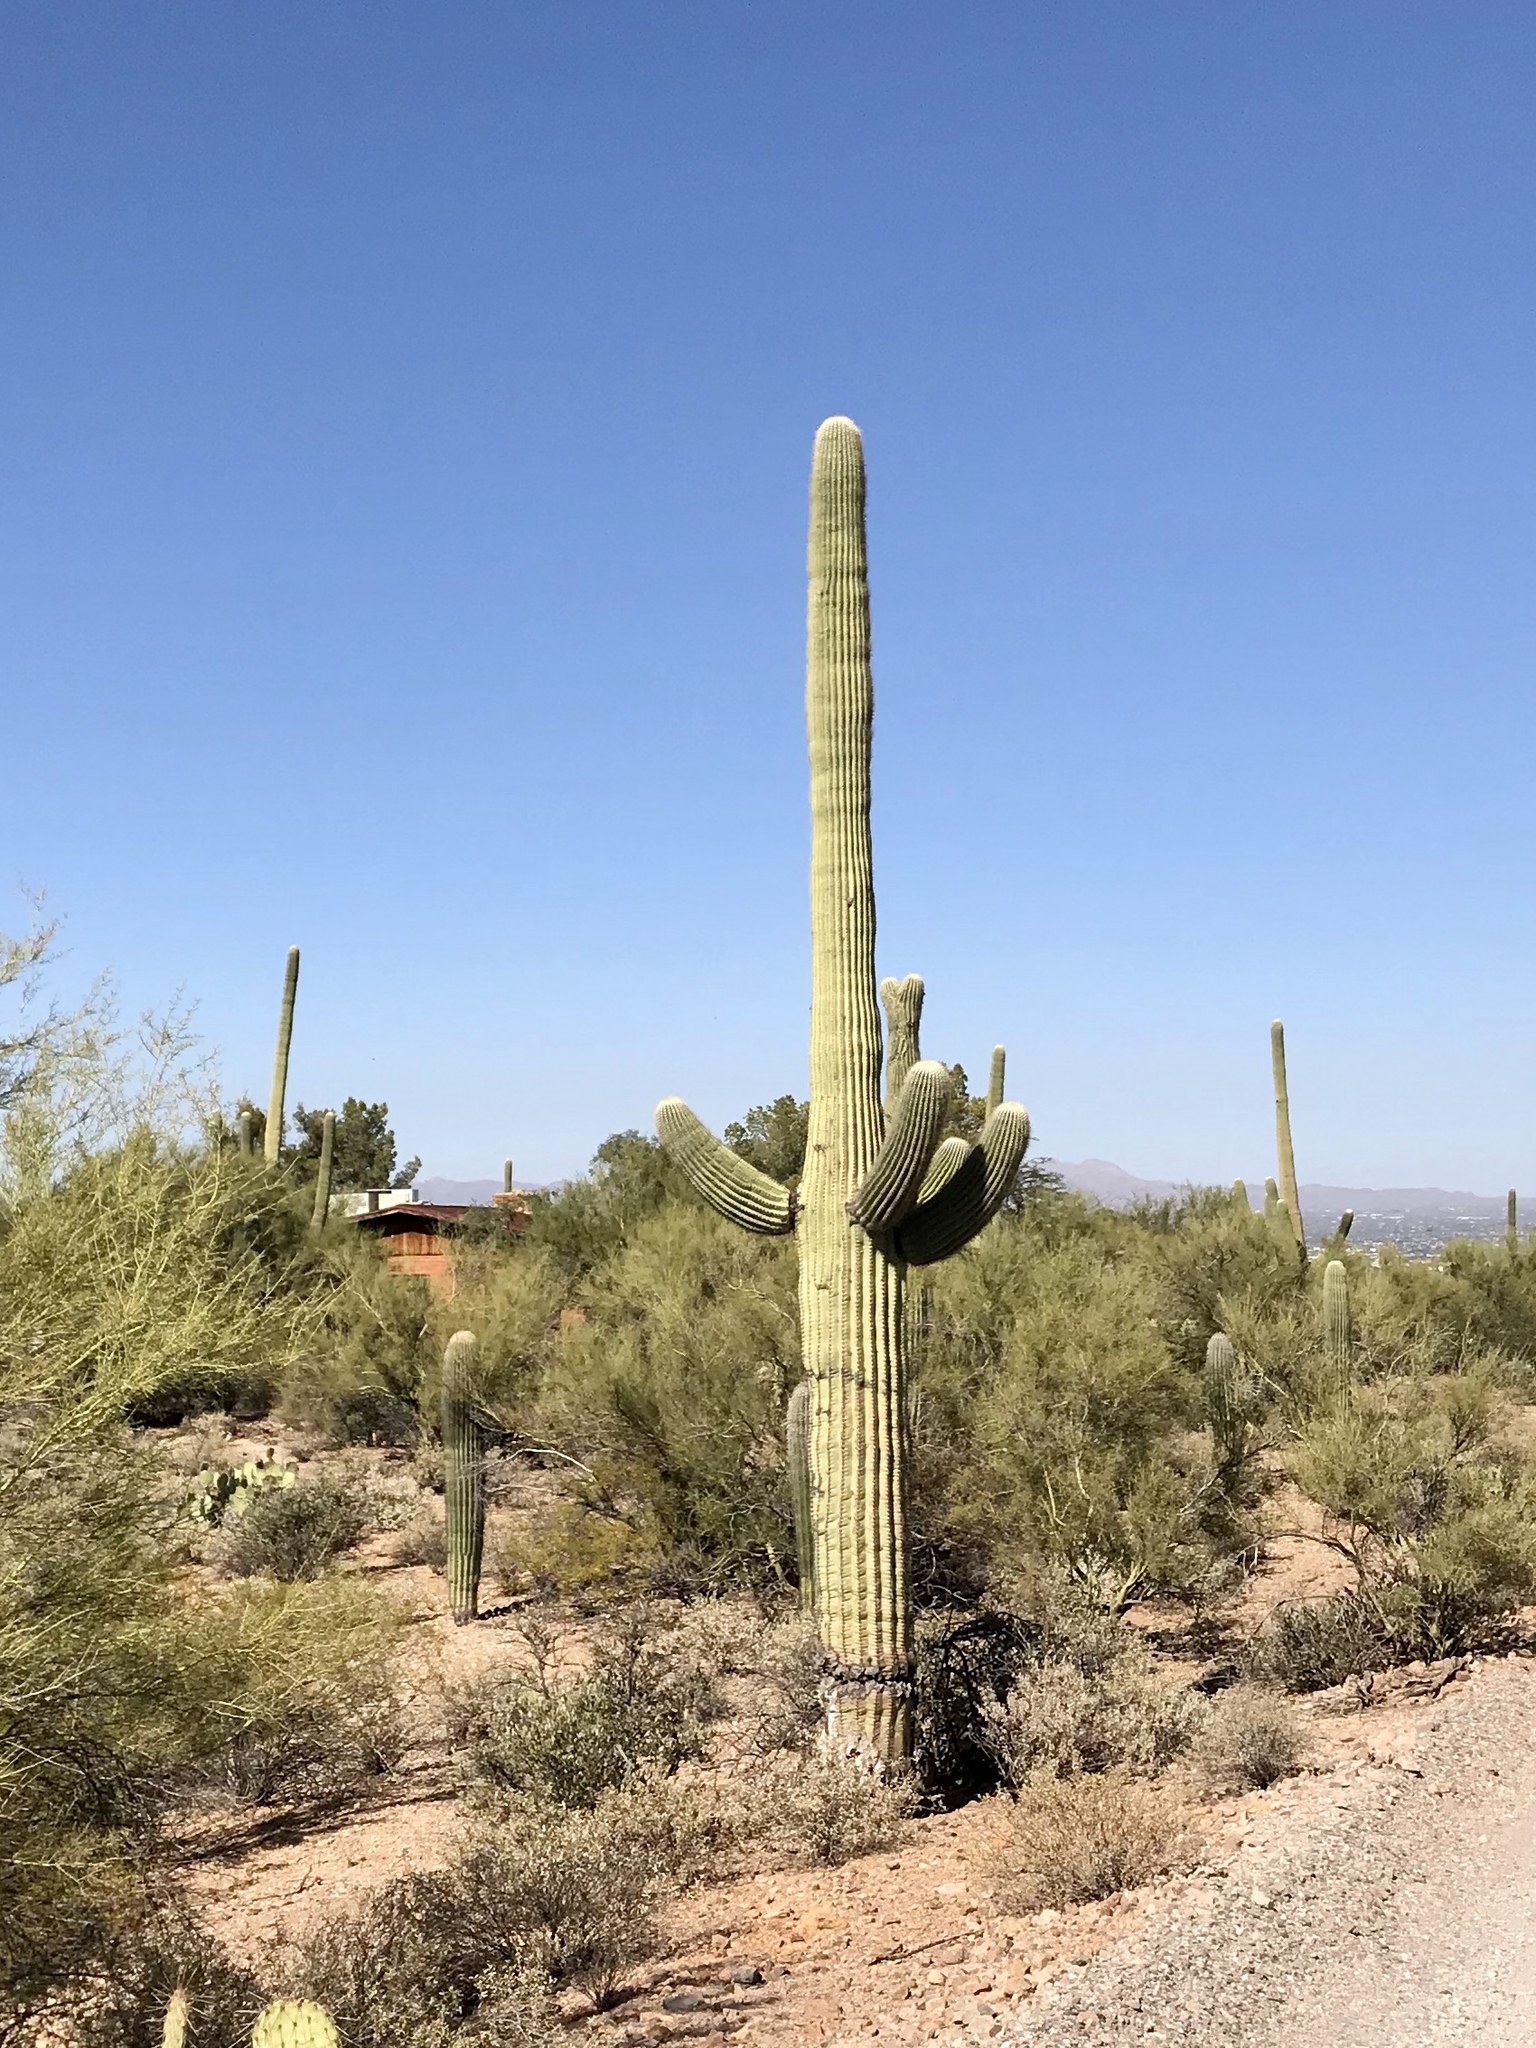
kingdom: Plantae
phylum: Tracheophyta
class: Magnoliopsida
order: Caryophyllales
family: Cactaceae
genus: Carnegiea
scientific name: Carnegiea gigantea
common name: Saguaro
